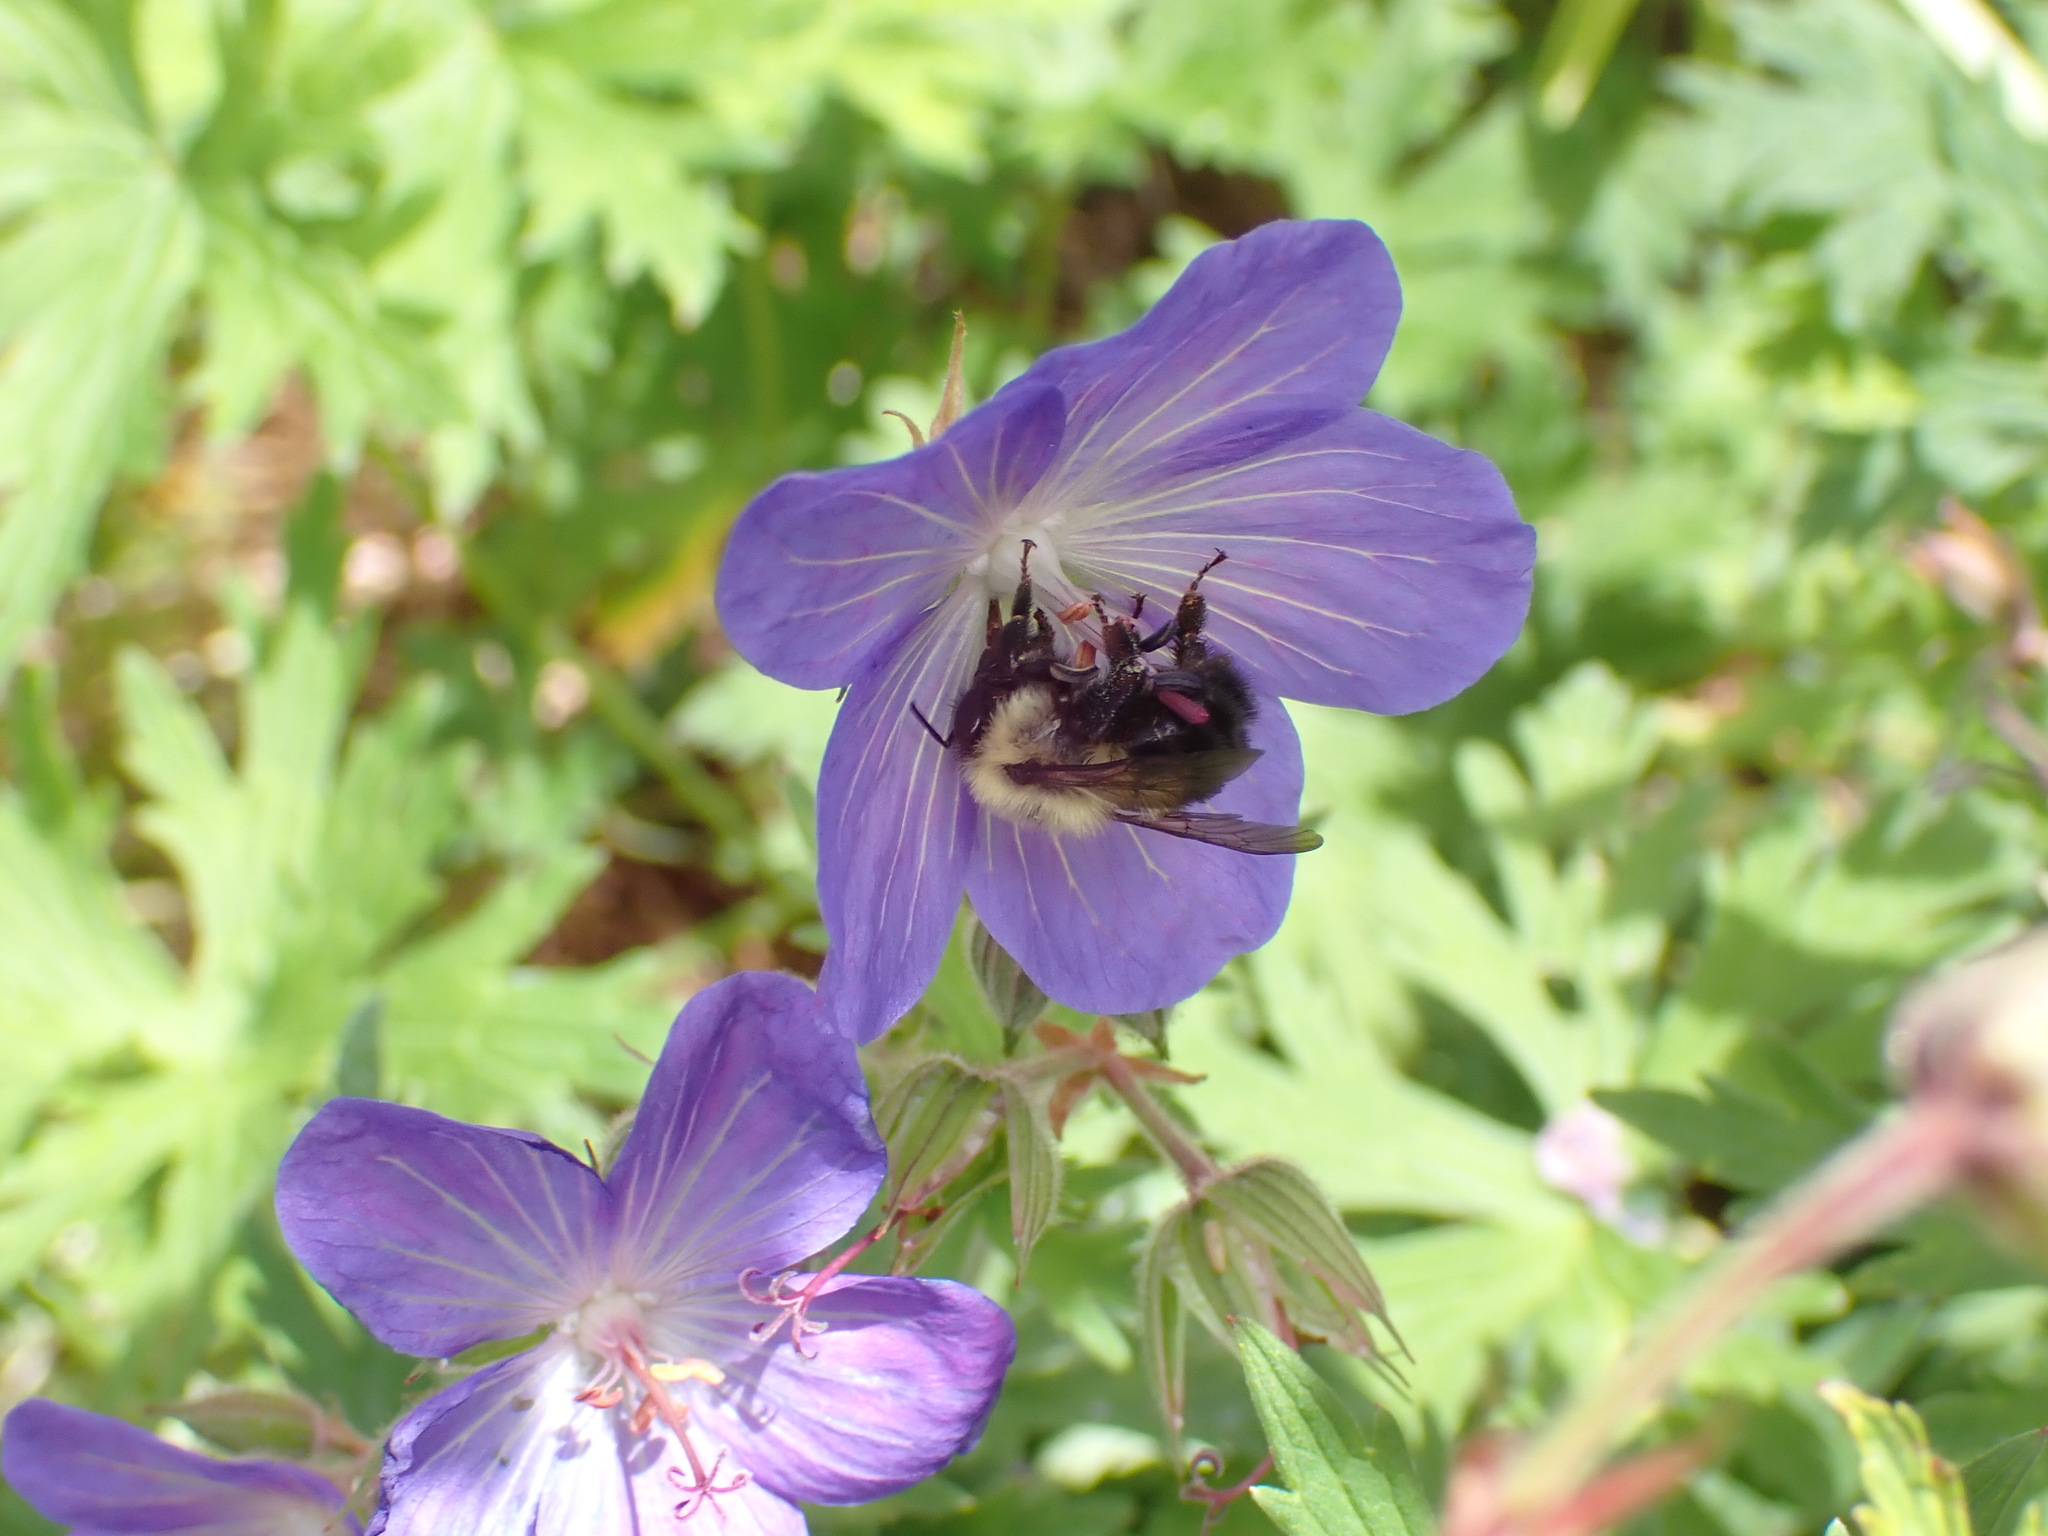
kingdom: Animalia
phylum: Arthropoda
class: Insecta
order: Hymenoptera
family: Apidae
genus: Bombus
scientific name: Bombus bimaculatus
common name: Two-spotted bumble bee
